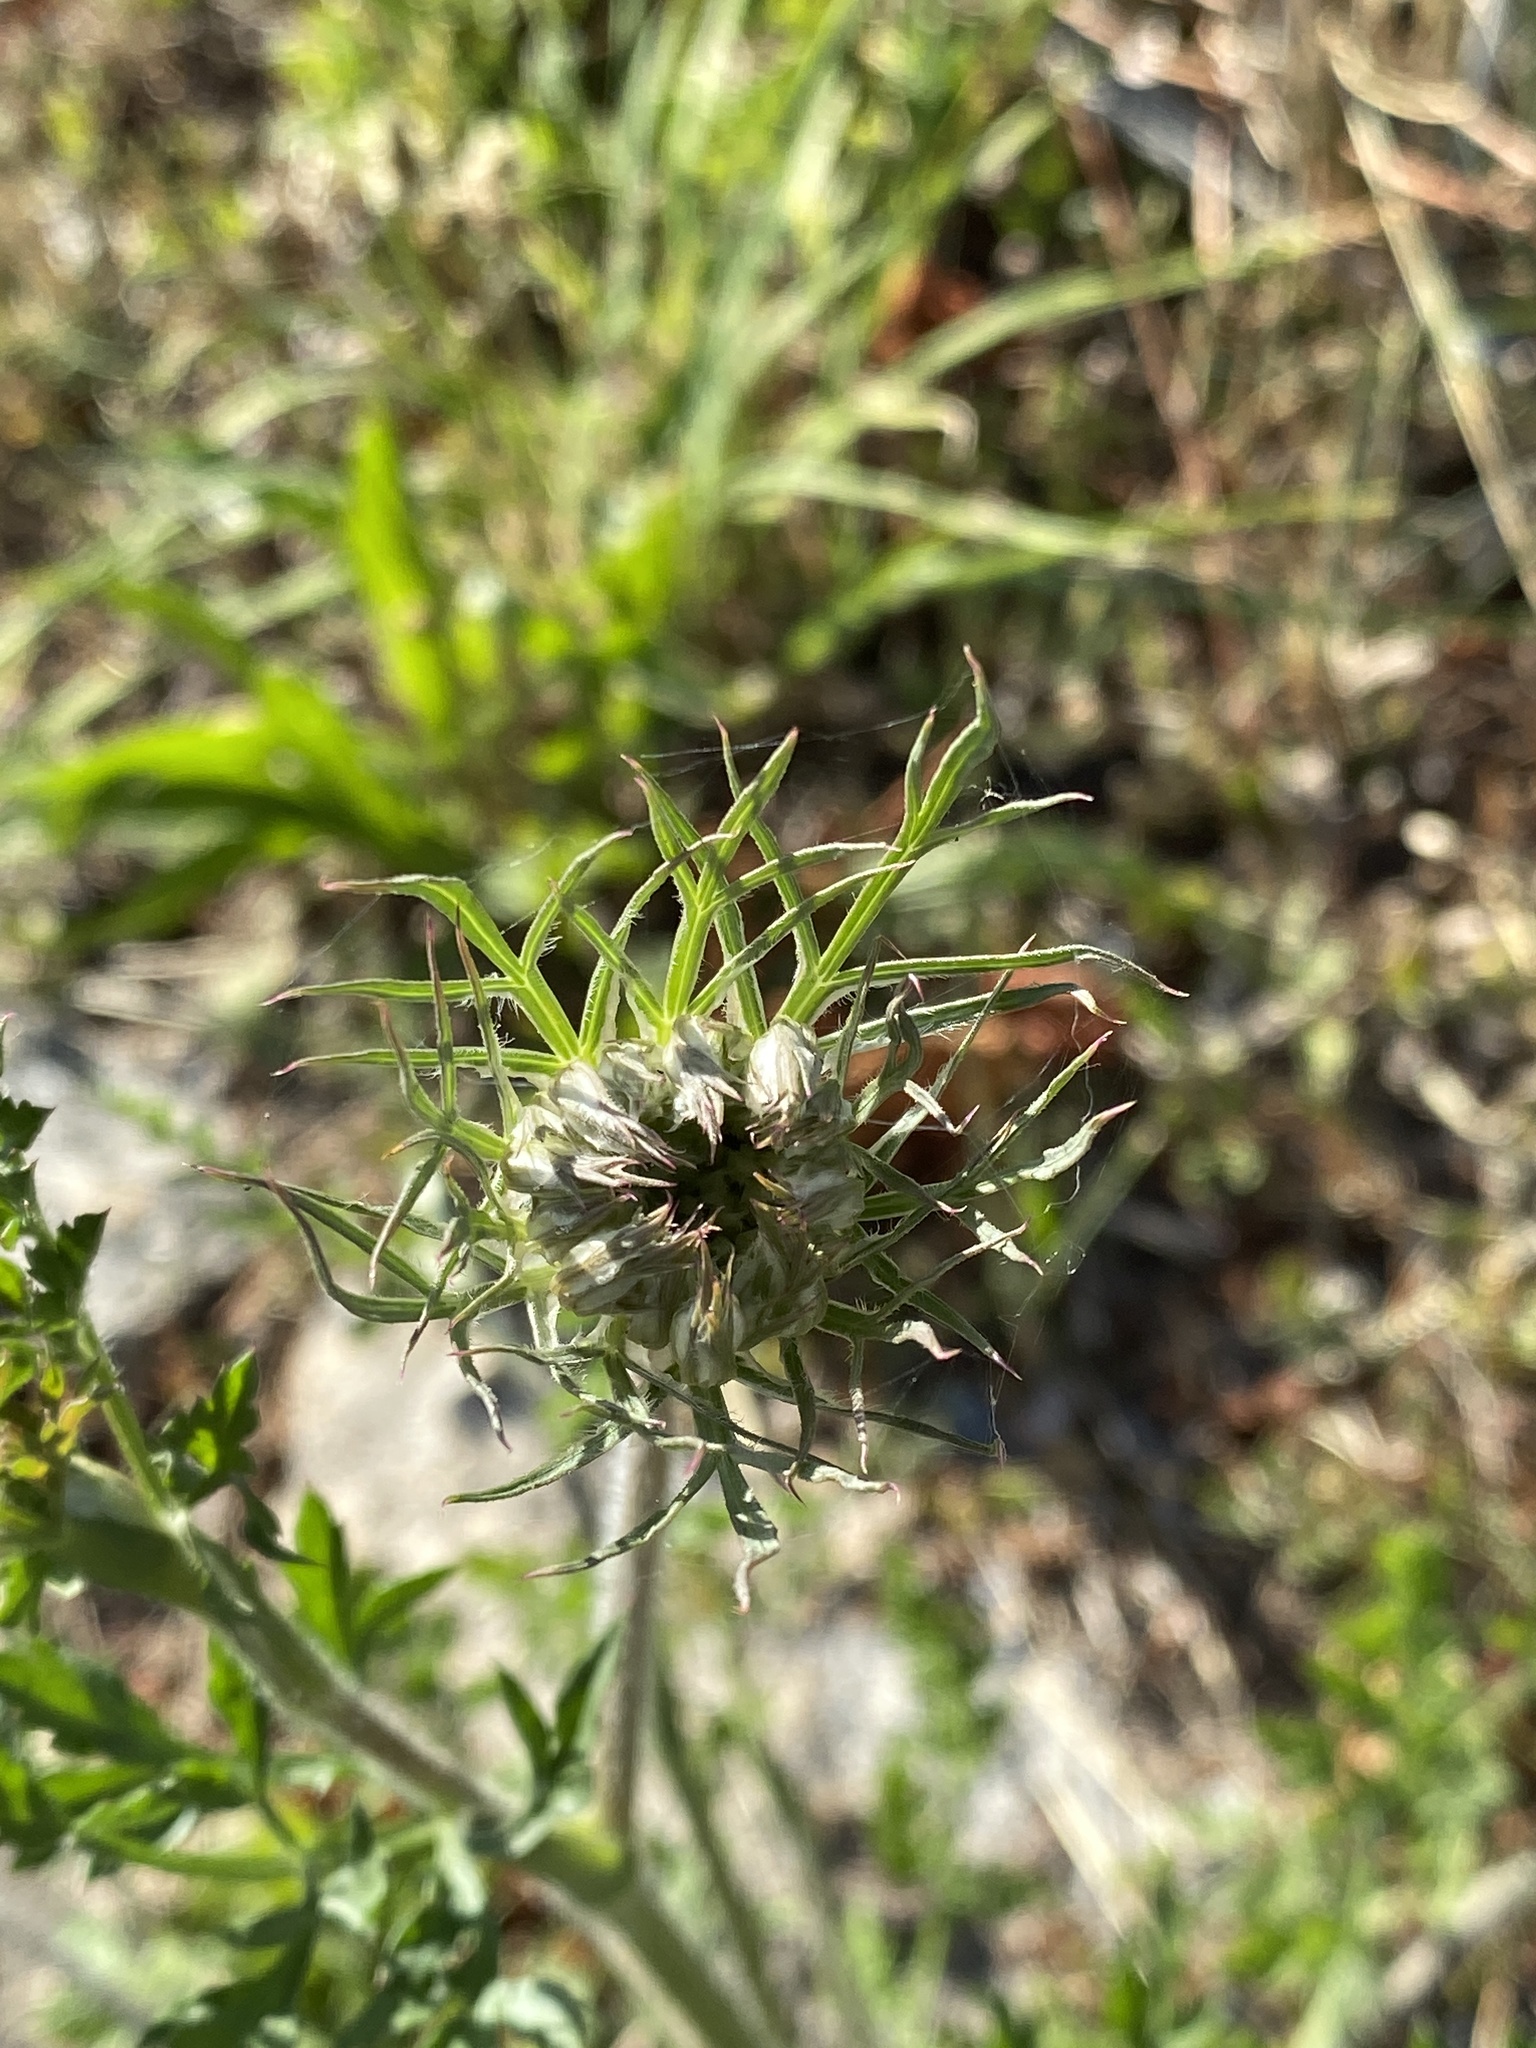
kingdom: Plantae
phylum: Tracheophyta
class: Magnoliopsida
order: Apiales
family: Apiaceae
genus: Daucus
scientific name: Daucus carota
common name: Wild carrot
